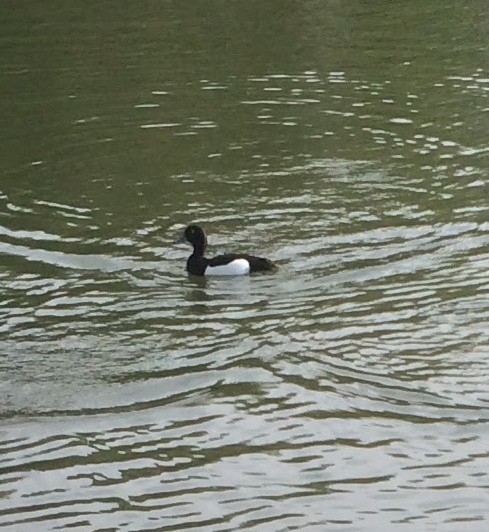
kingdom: Animalia
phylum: Chordata
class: Aves
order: Anseriformes
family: Anatidae
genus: Aythya
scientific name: Aythya fuligula
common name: Tufted duck
